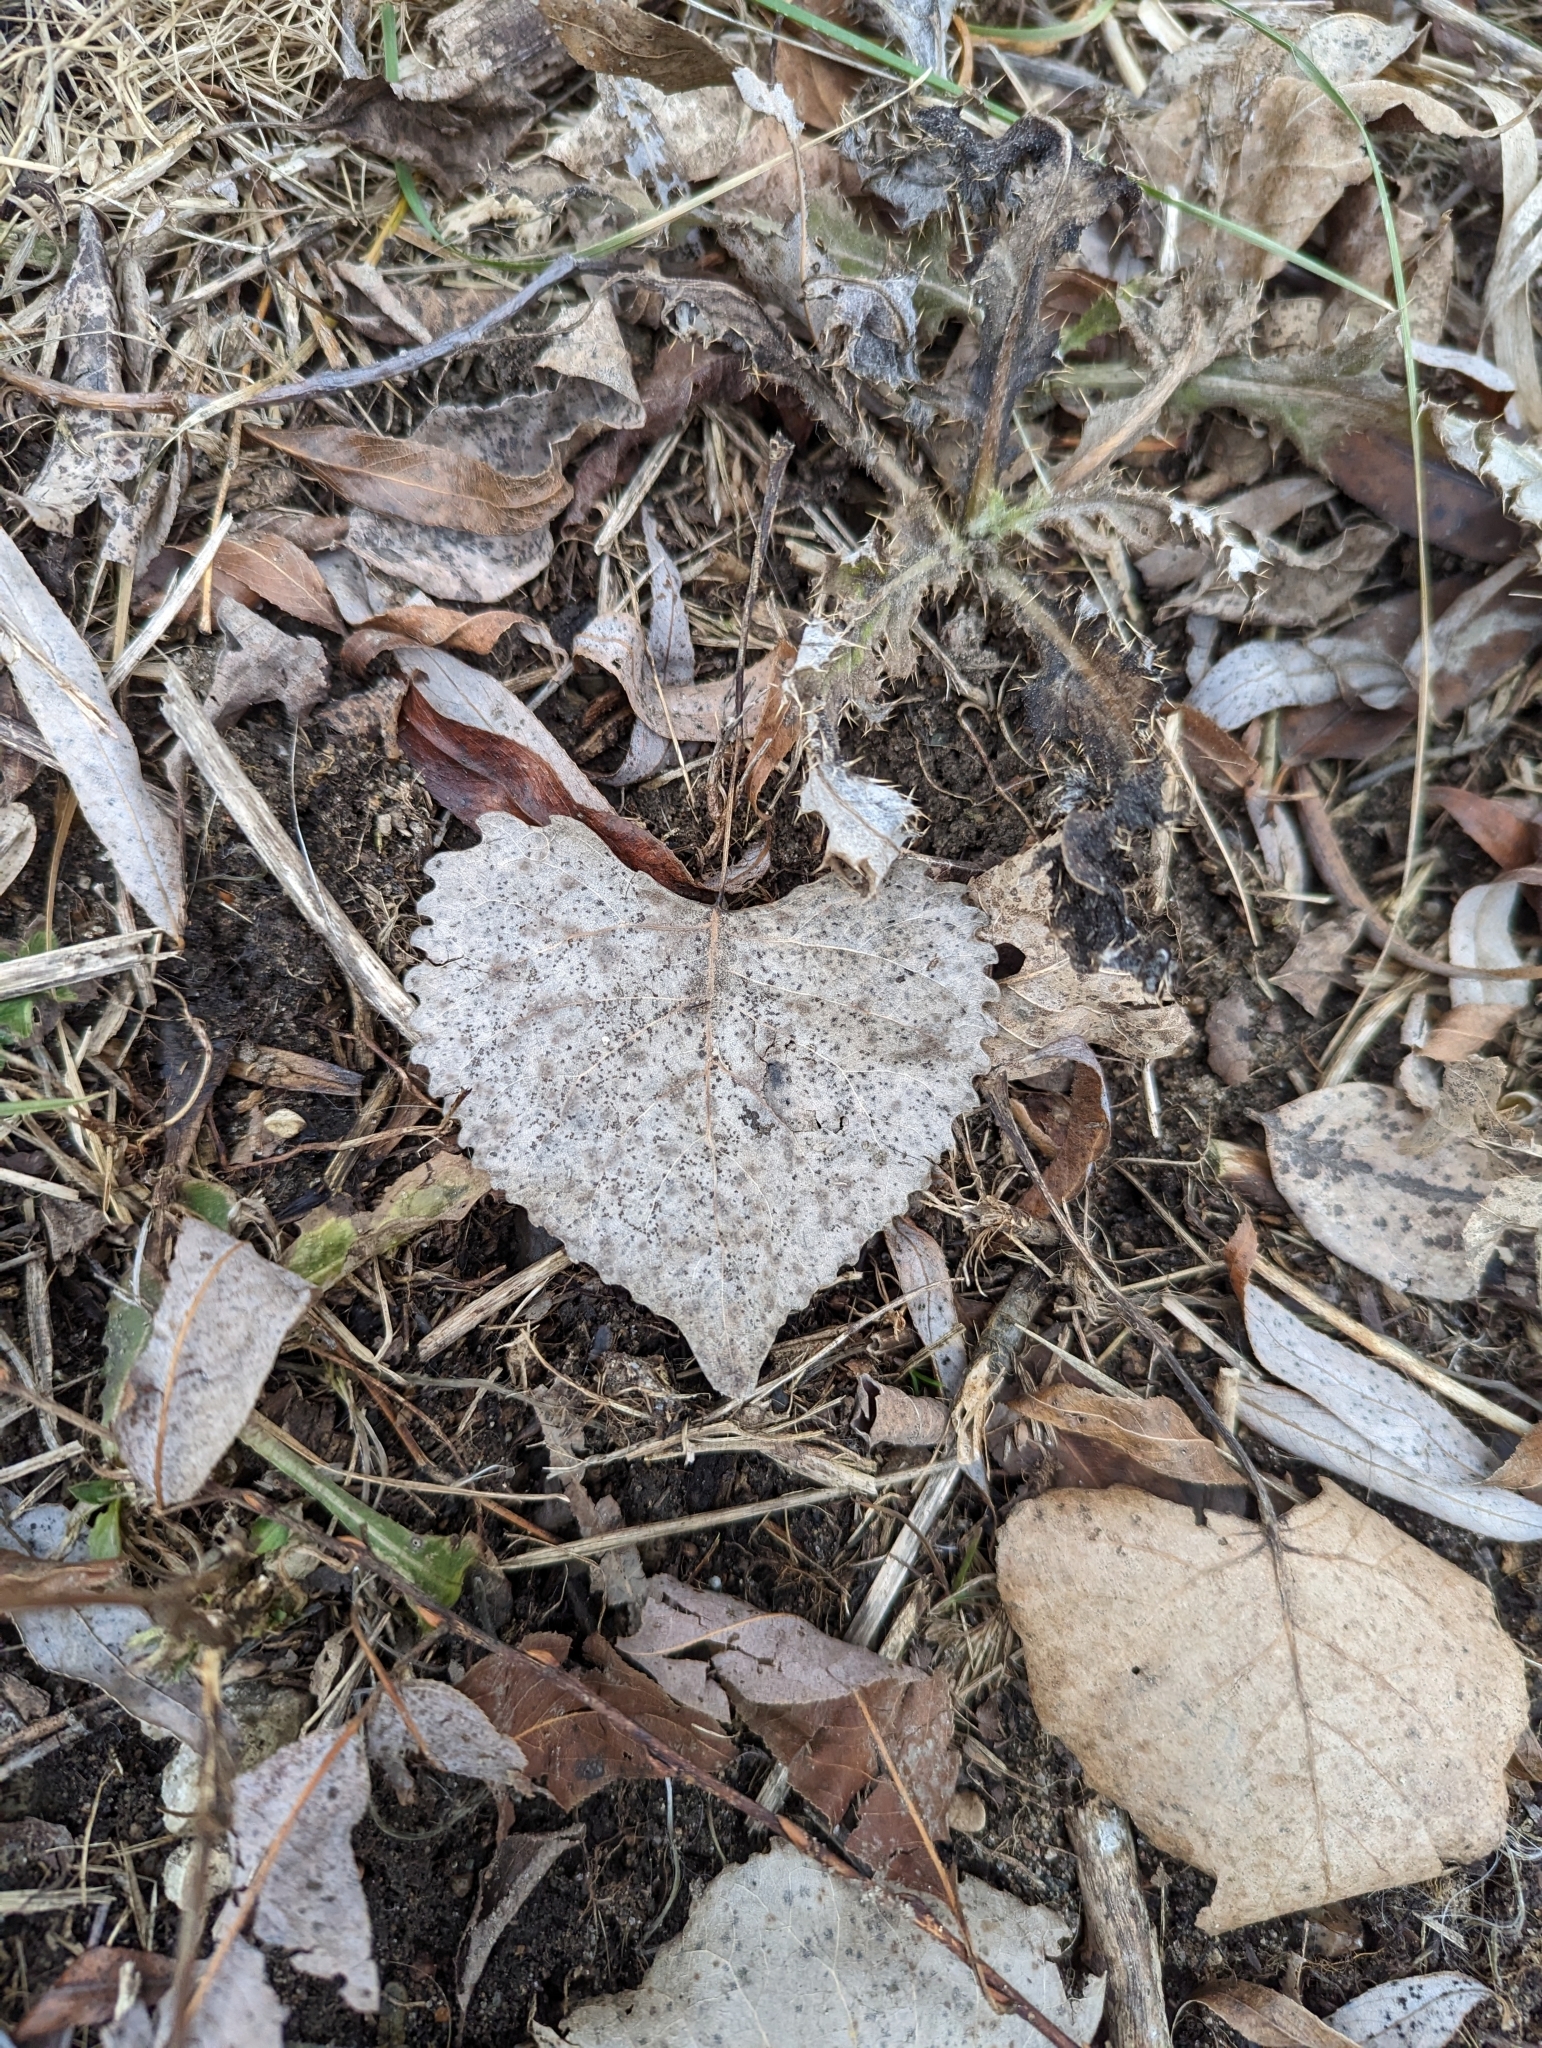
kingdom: Plantae
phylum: Tracheophyta
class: Magnoliopsida
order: Malpighiales
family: Salicaceae
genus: Populus
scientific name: Populus deltoides
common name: Eastern cottonwood
